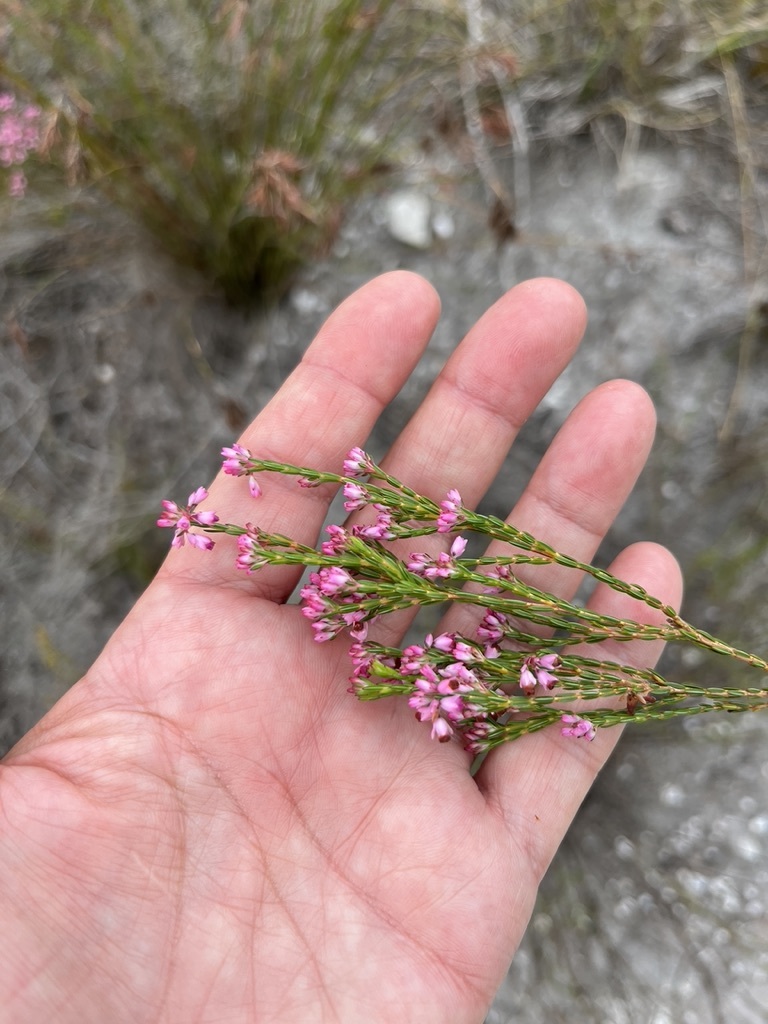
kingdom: Plantae
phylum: Tracheophyta
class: Magnoliopsida
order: Ericales
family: Ericaceae
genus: Erica
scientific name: Erica corifolia
